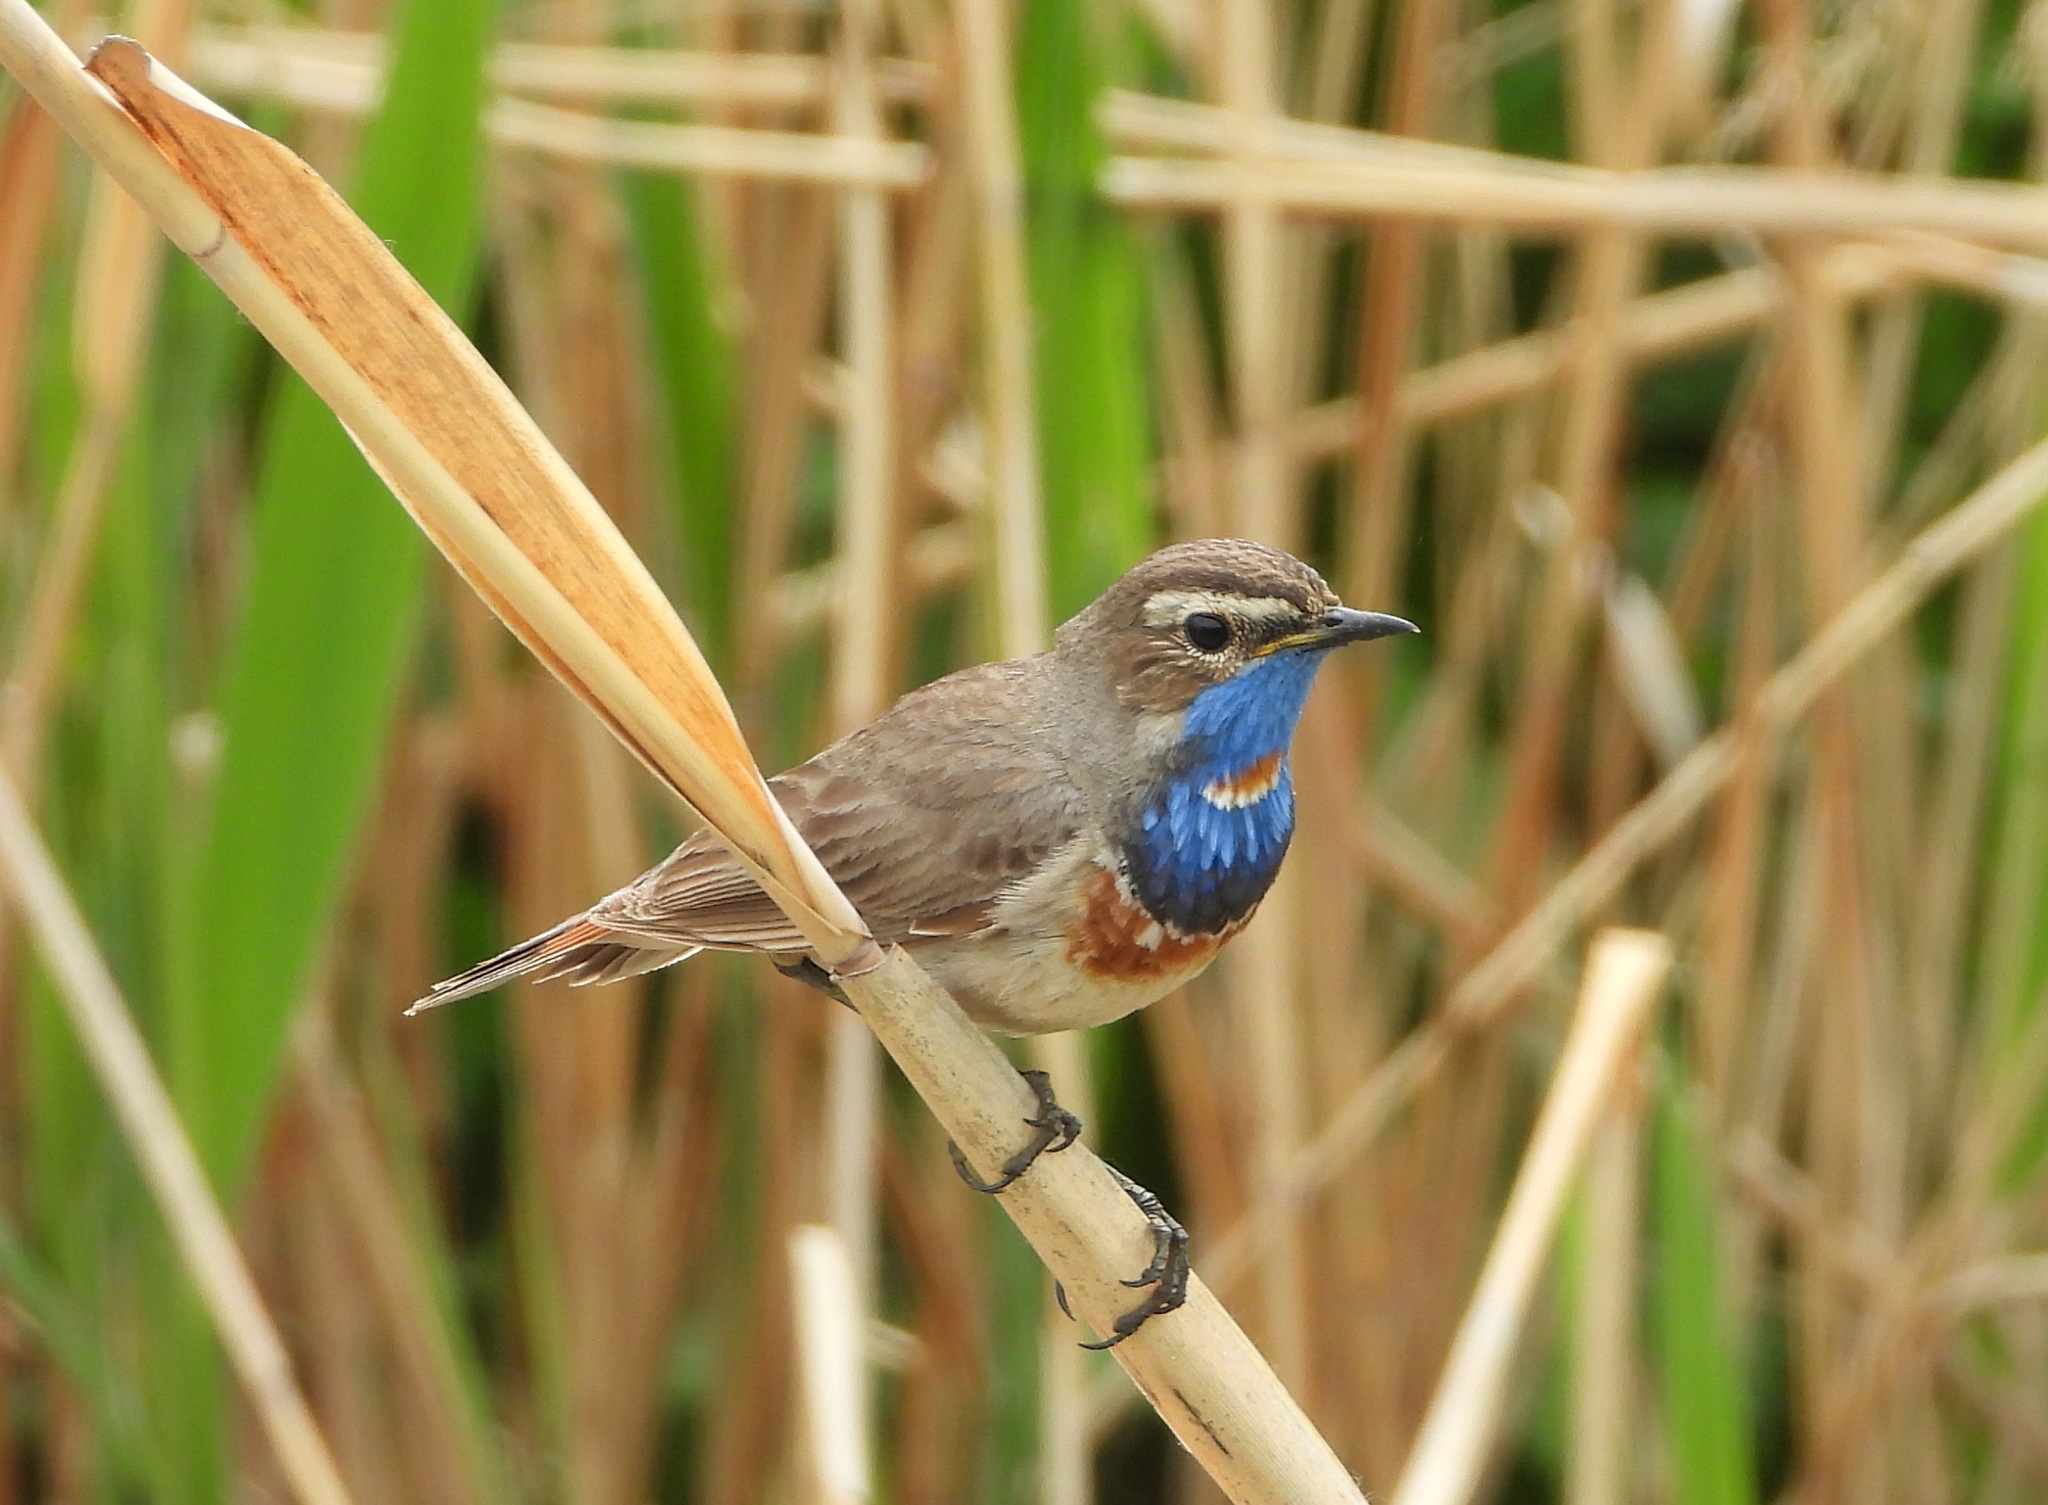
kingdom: Animalia
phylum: Chordata
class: Aves
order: Passeriformes
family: Muscicapidae
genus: Luscinia
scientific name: Luscinia svecica
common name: Bluethroat
